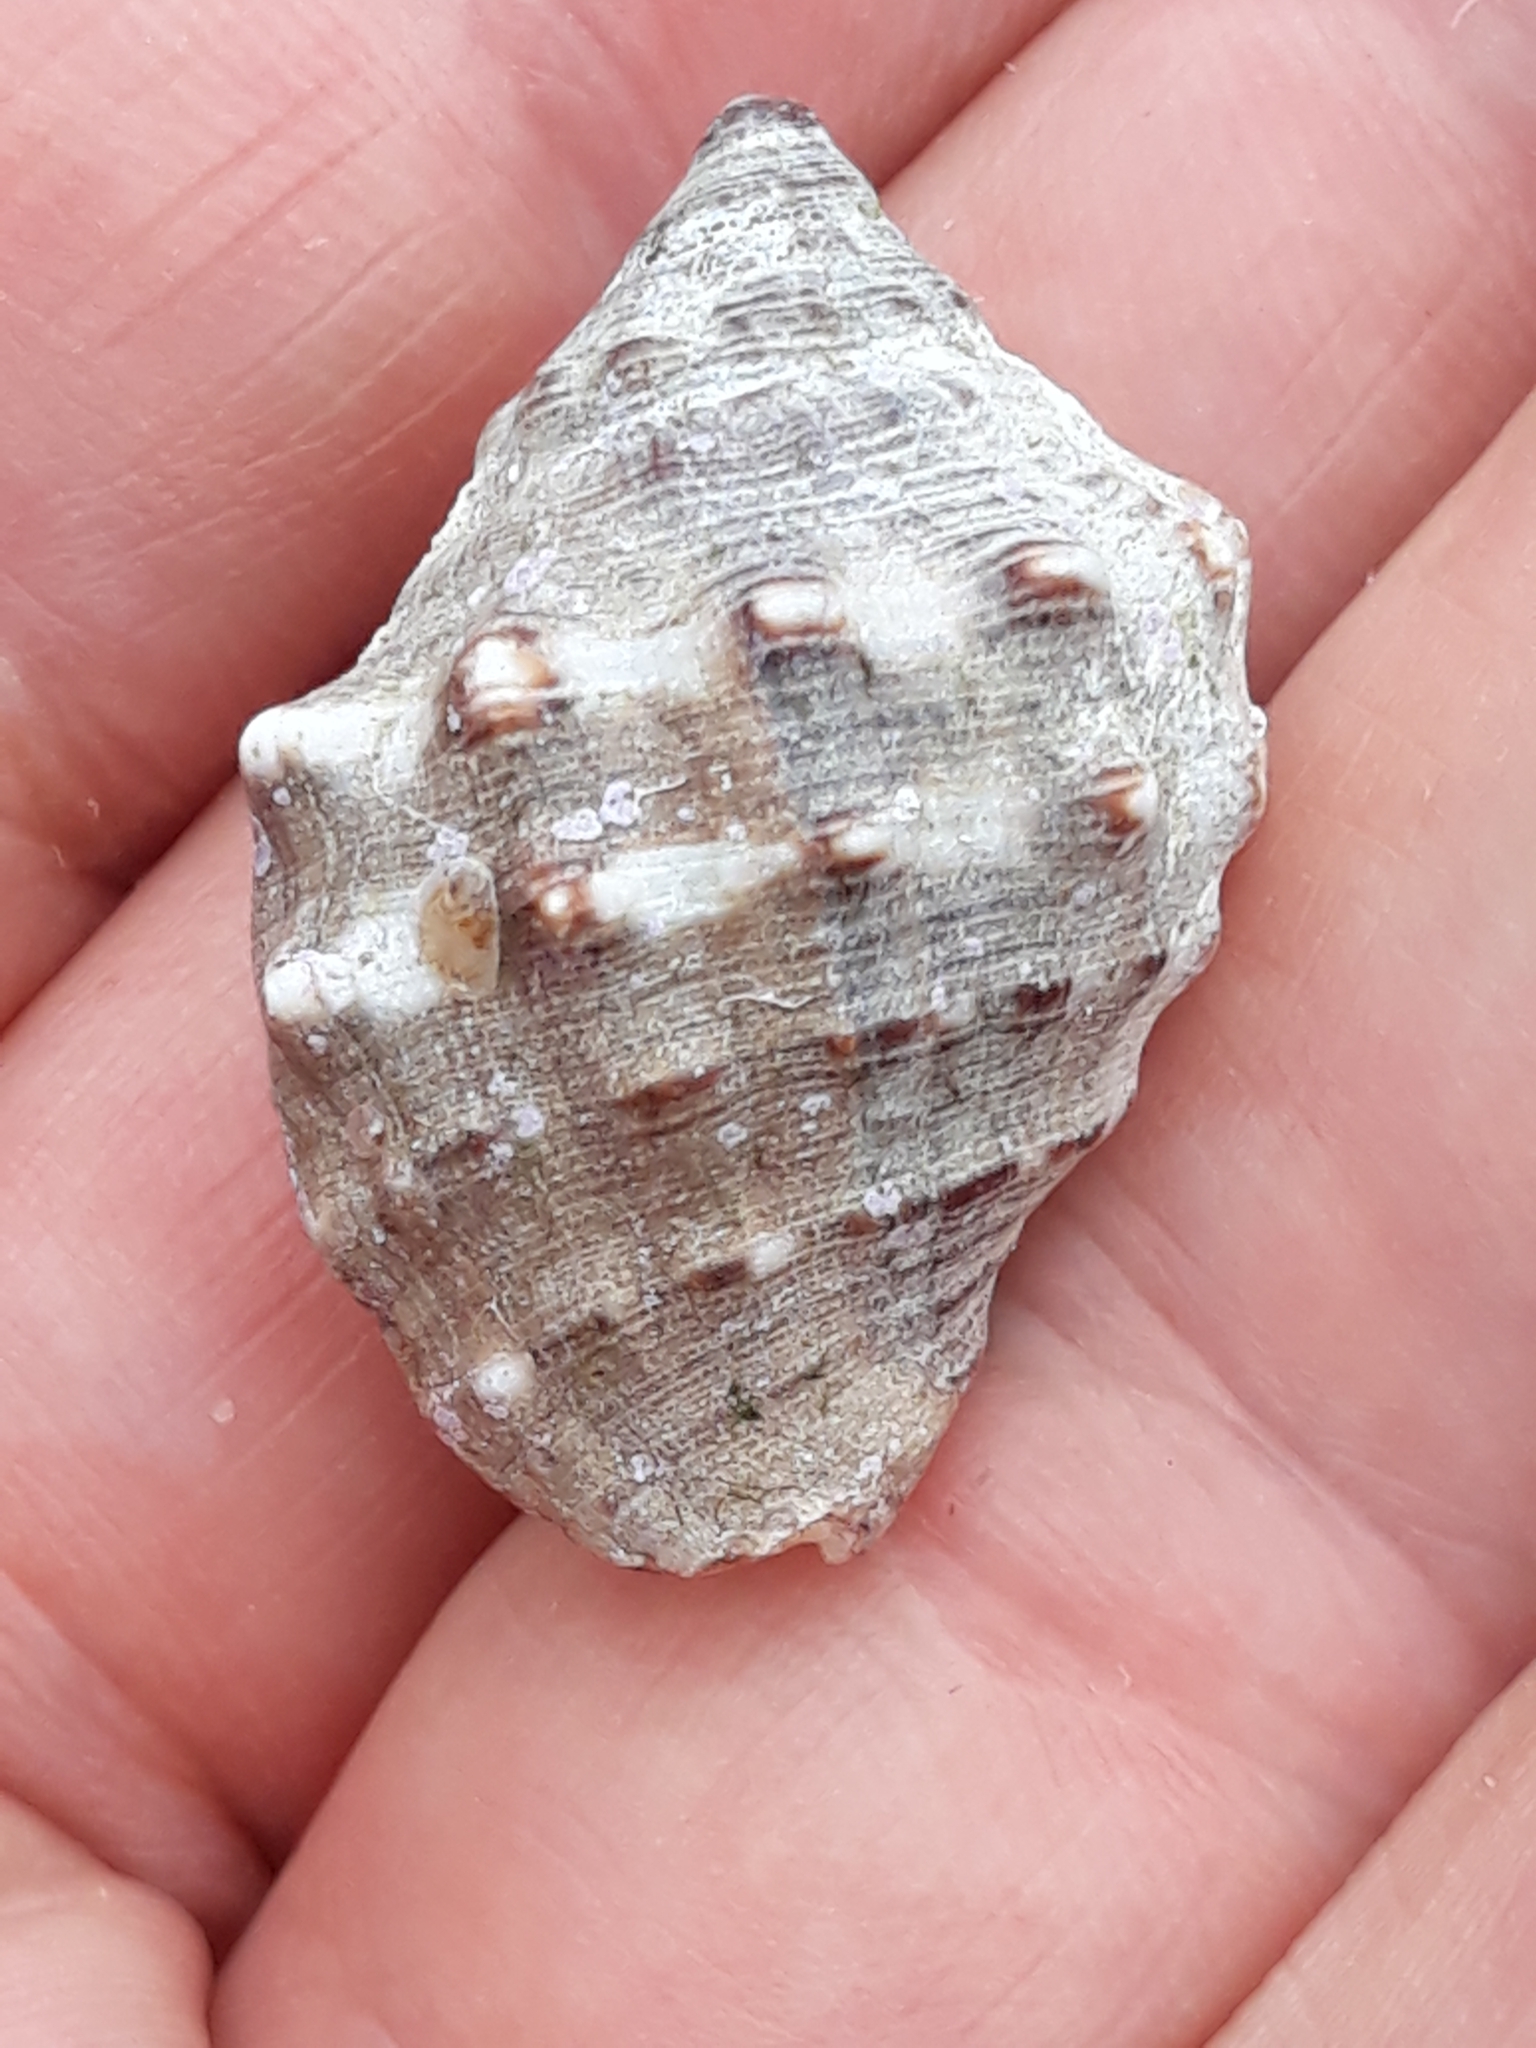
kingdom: Animalia
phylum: Mollusca
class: Gastropoda
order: Neogastropoda
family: Muricidae
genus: Stramonita
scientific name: Stramonita haemastoma
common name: Florida dog winkle
